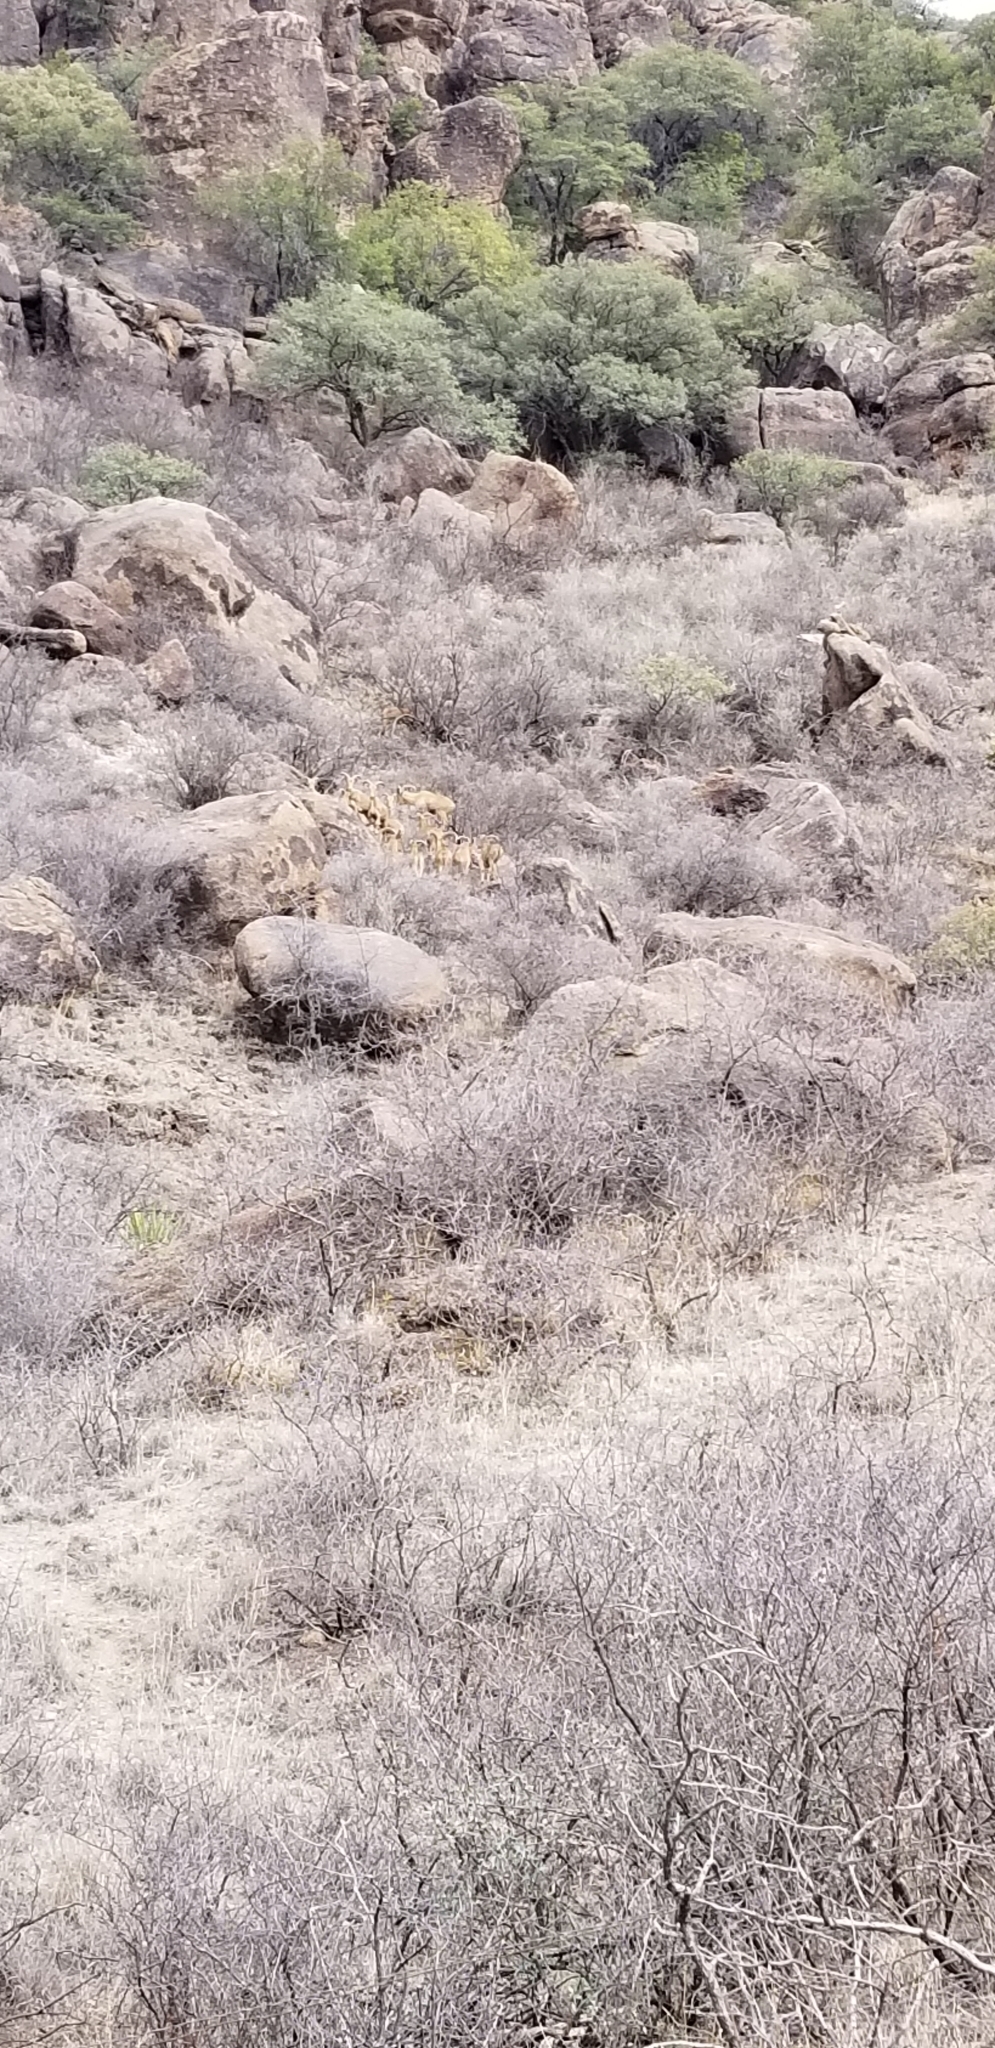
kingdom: Animalia
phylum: Chordata
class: Mammalia
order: Artiodactyla
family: Bovidae
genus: Ammotragus
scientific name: Ammotragus lervia
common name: Barbary sheep
